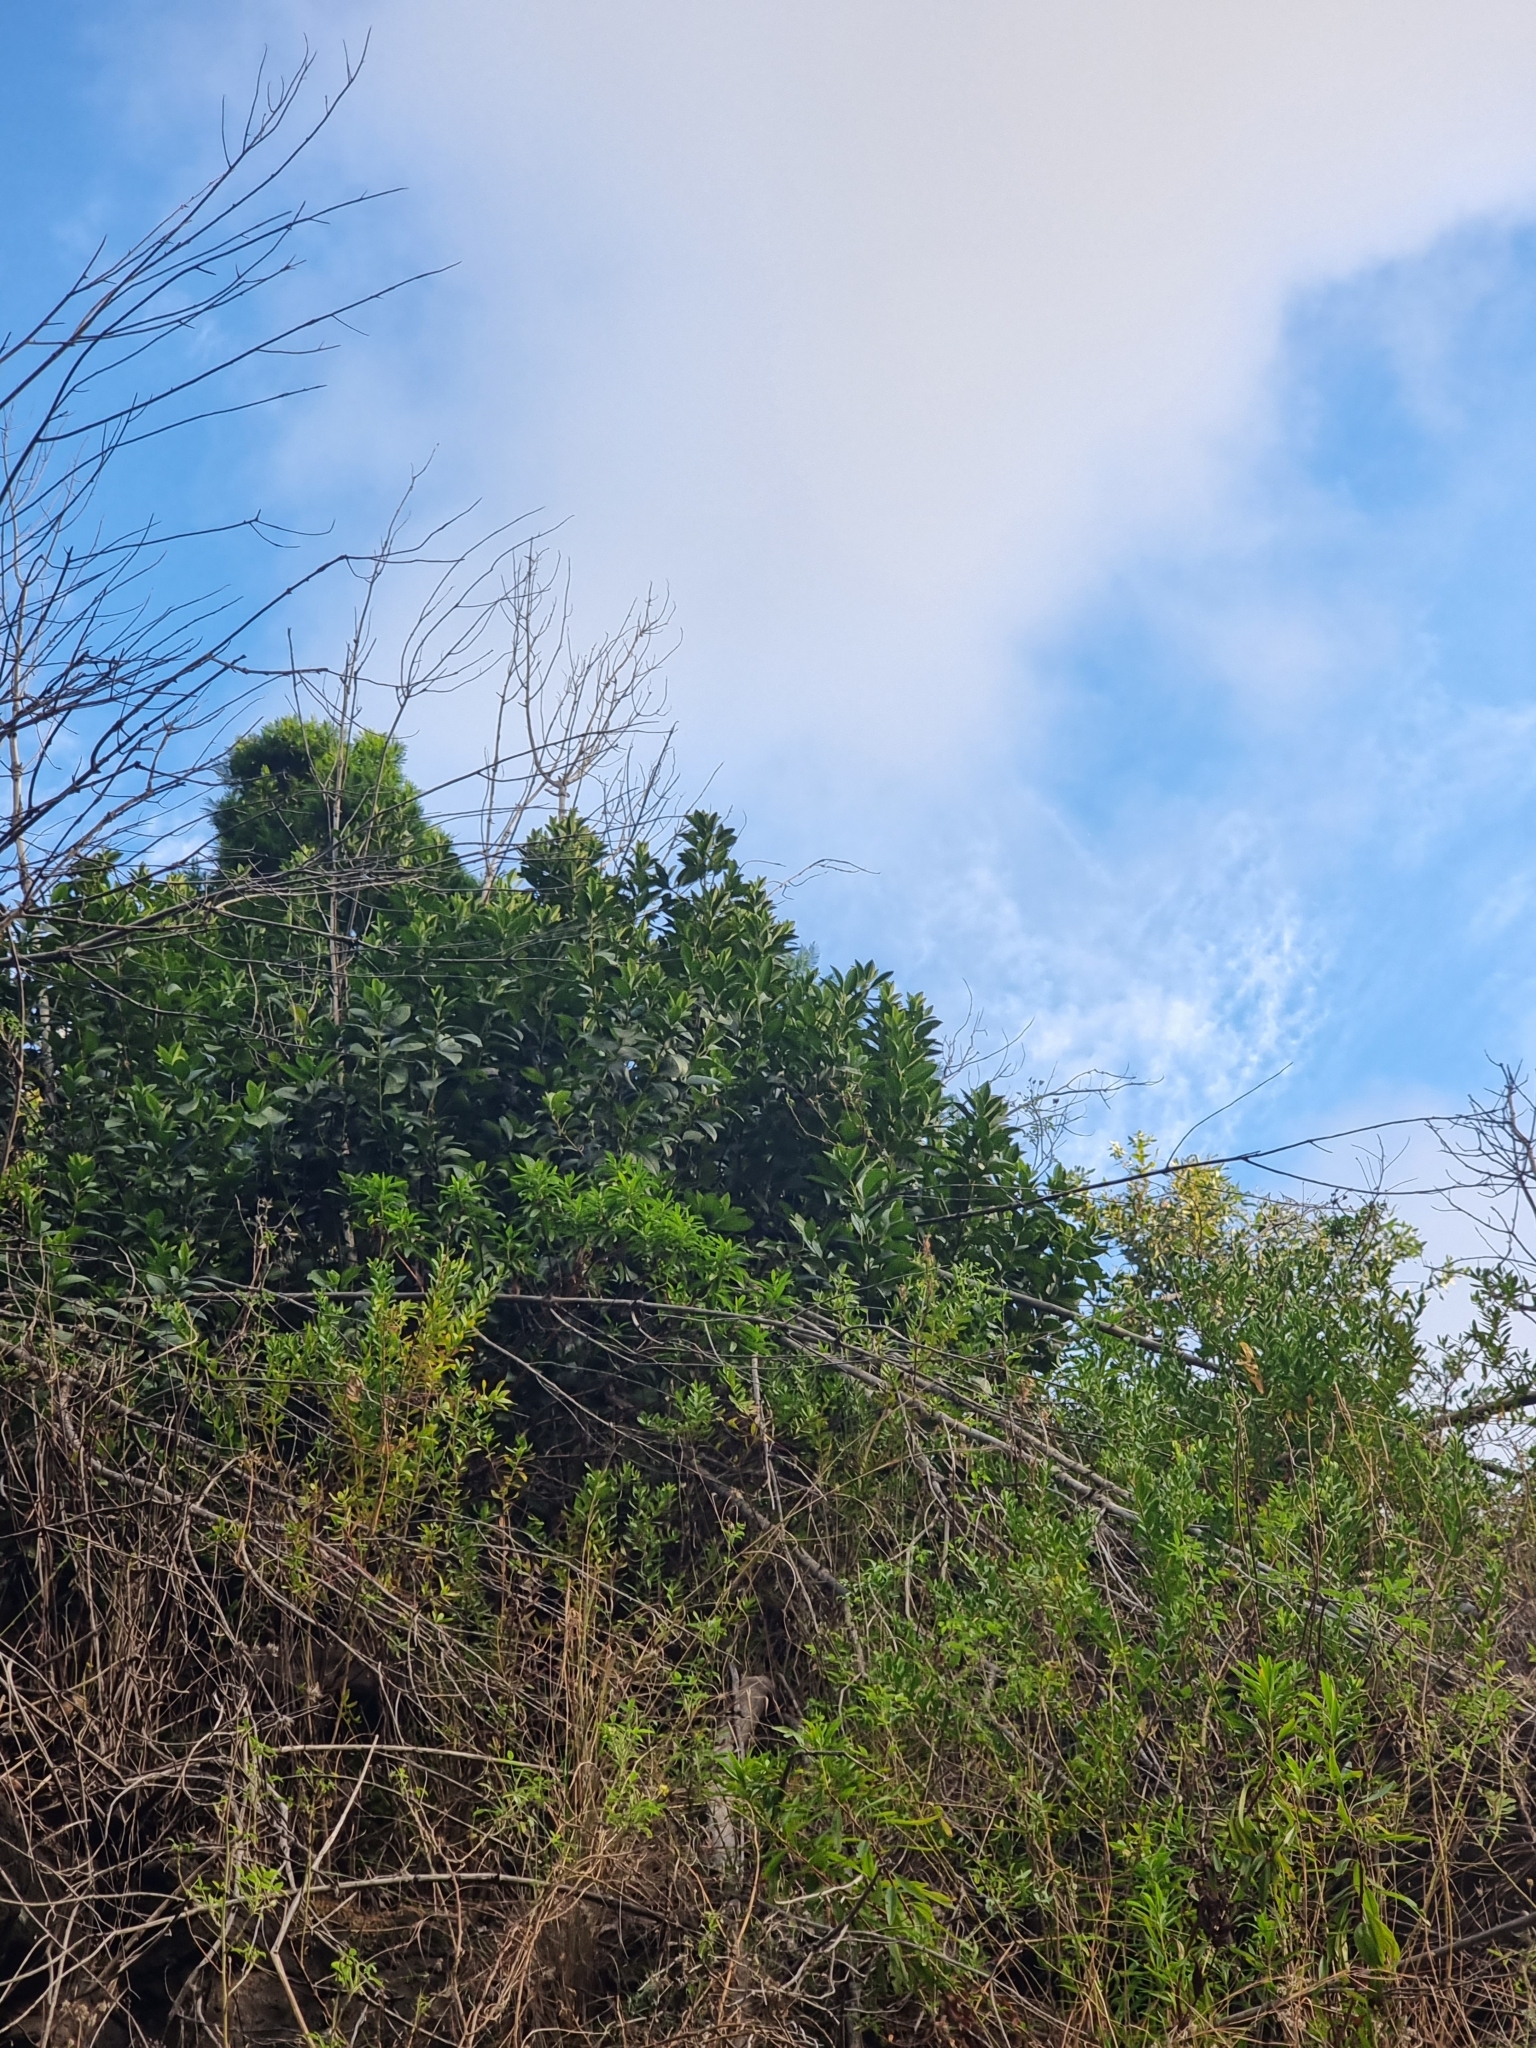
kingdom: Plantae
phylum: Tracheophyta
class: Magnoliopsida
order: Aquifoliales
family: Aquifoliaceae
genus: Ilex
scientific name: Ilex canariensis
